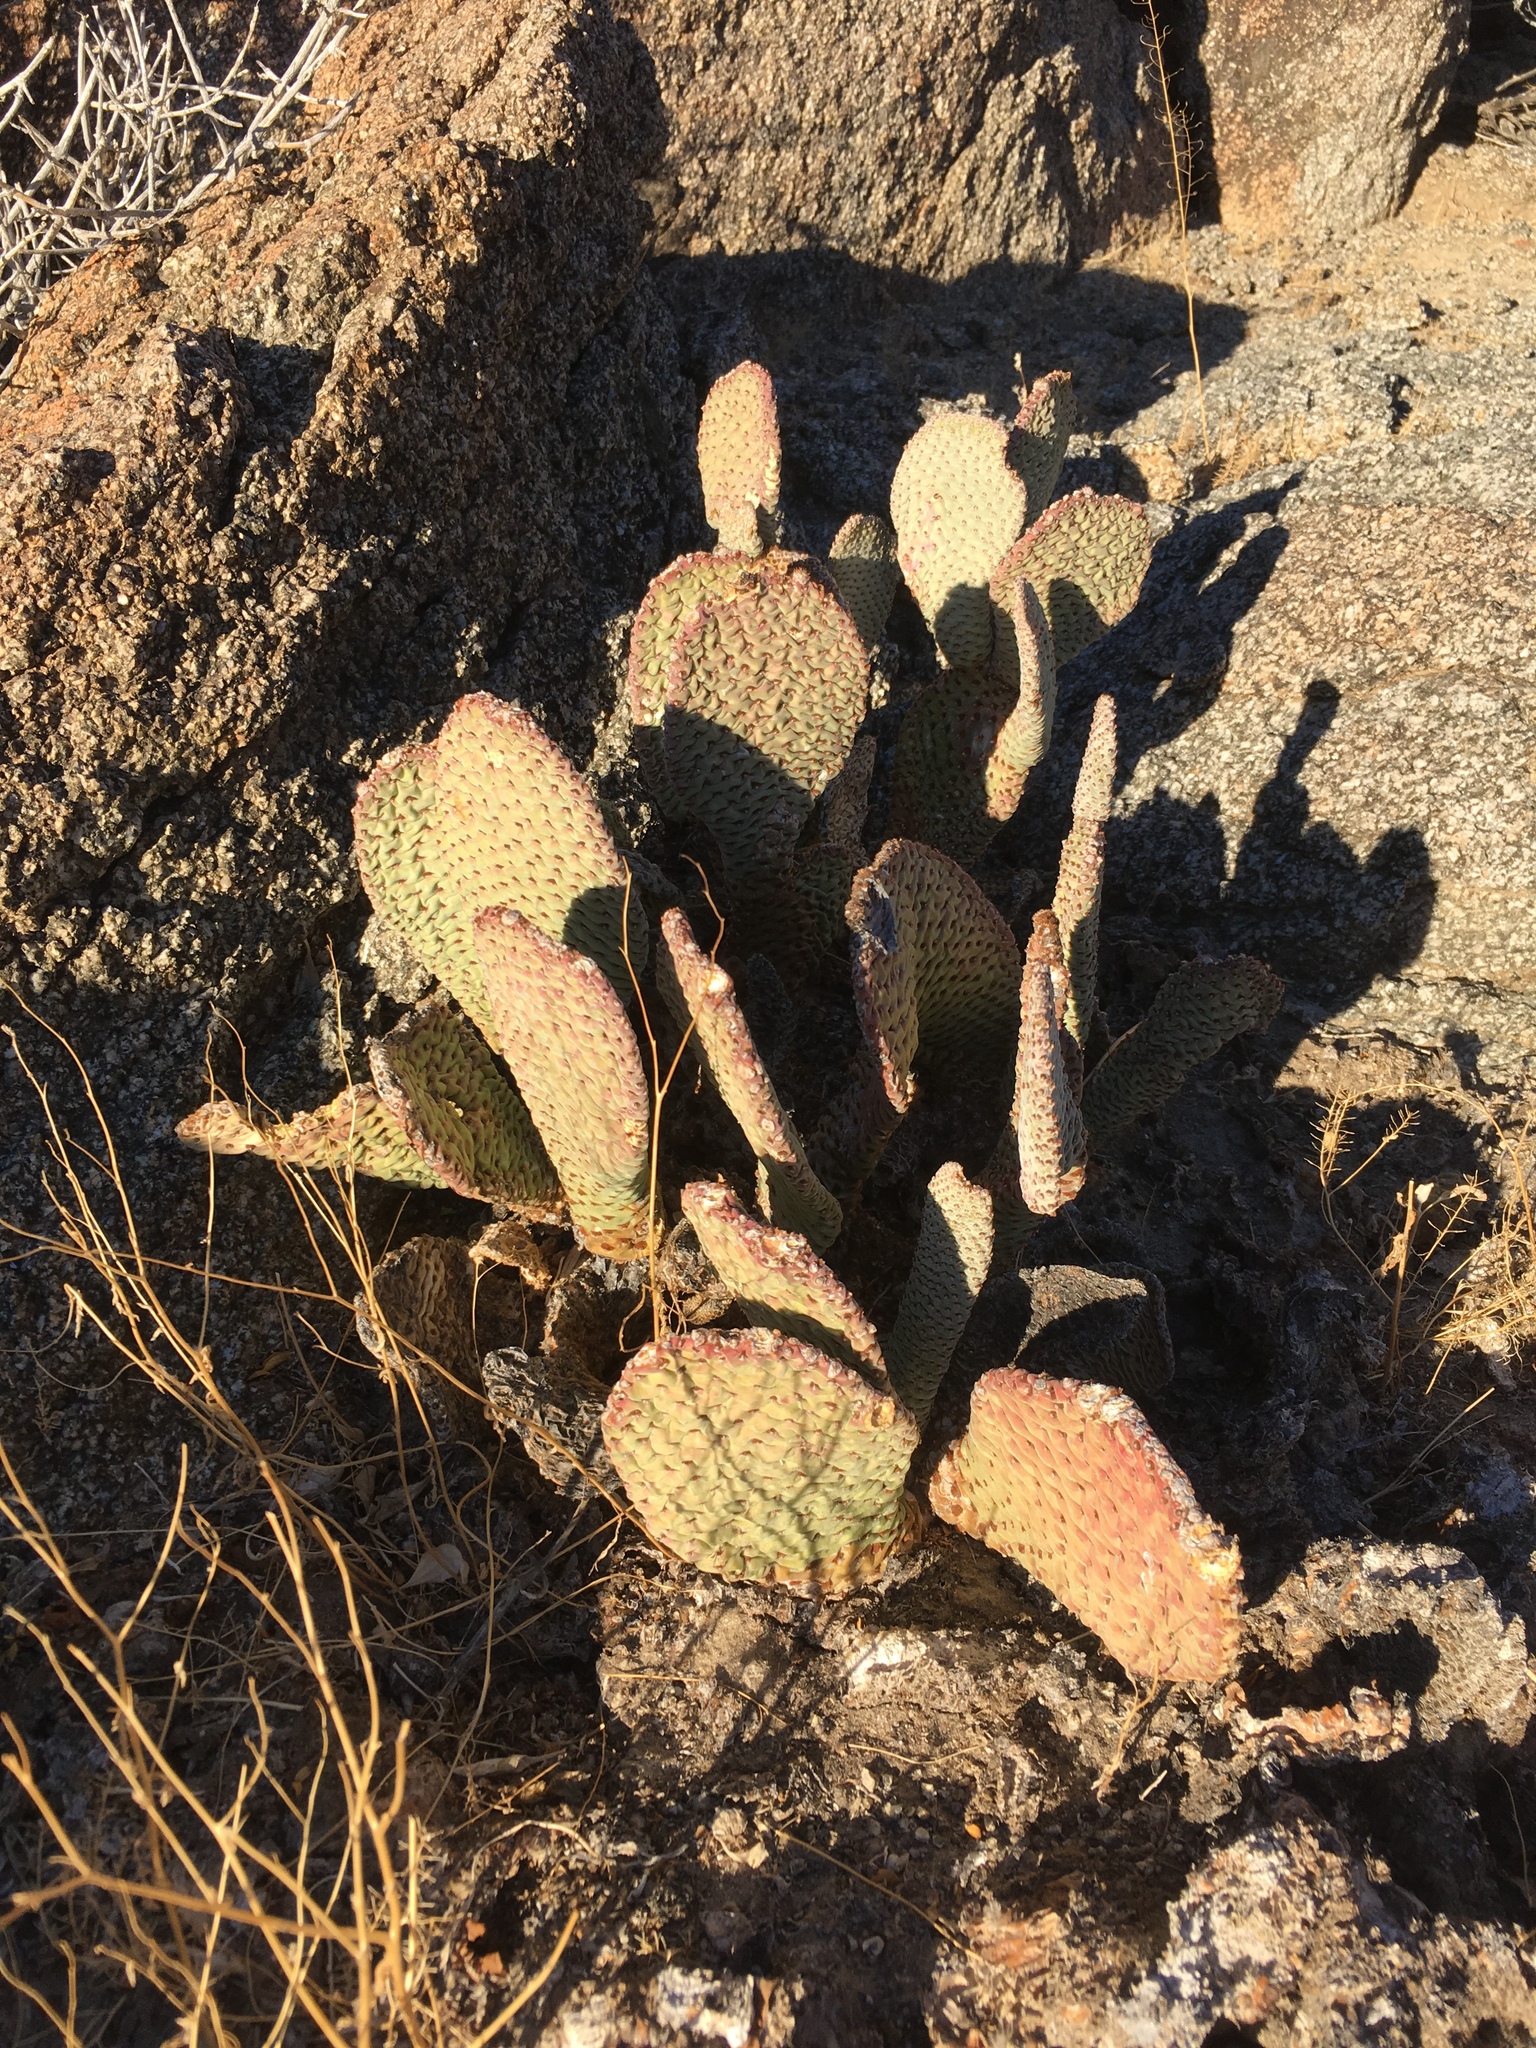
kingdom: Plantae
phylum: Tracheophyta
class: Magnoliopsida
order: Caryophyllales
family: Cactaceae
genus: Opuntia
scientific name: Opuntia basilaris
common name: Beavertail prickly-pear
